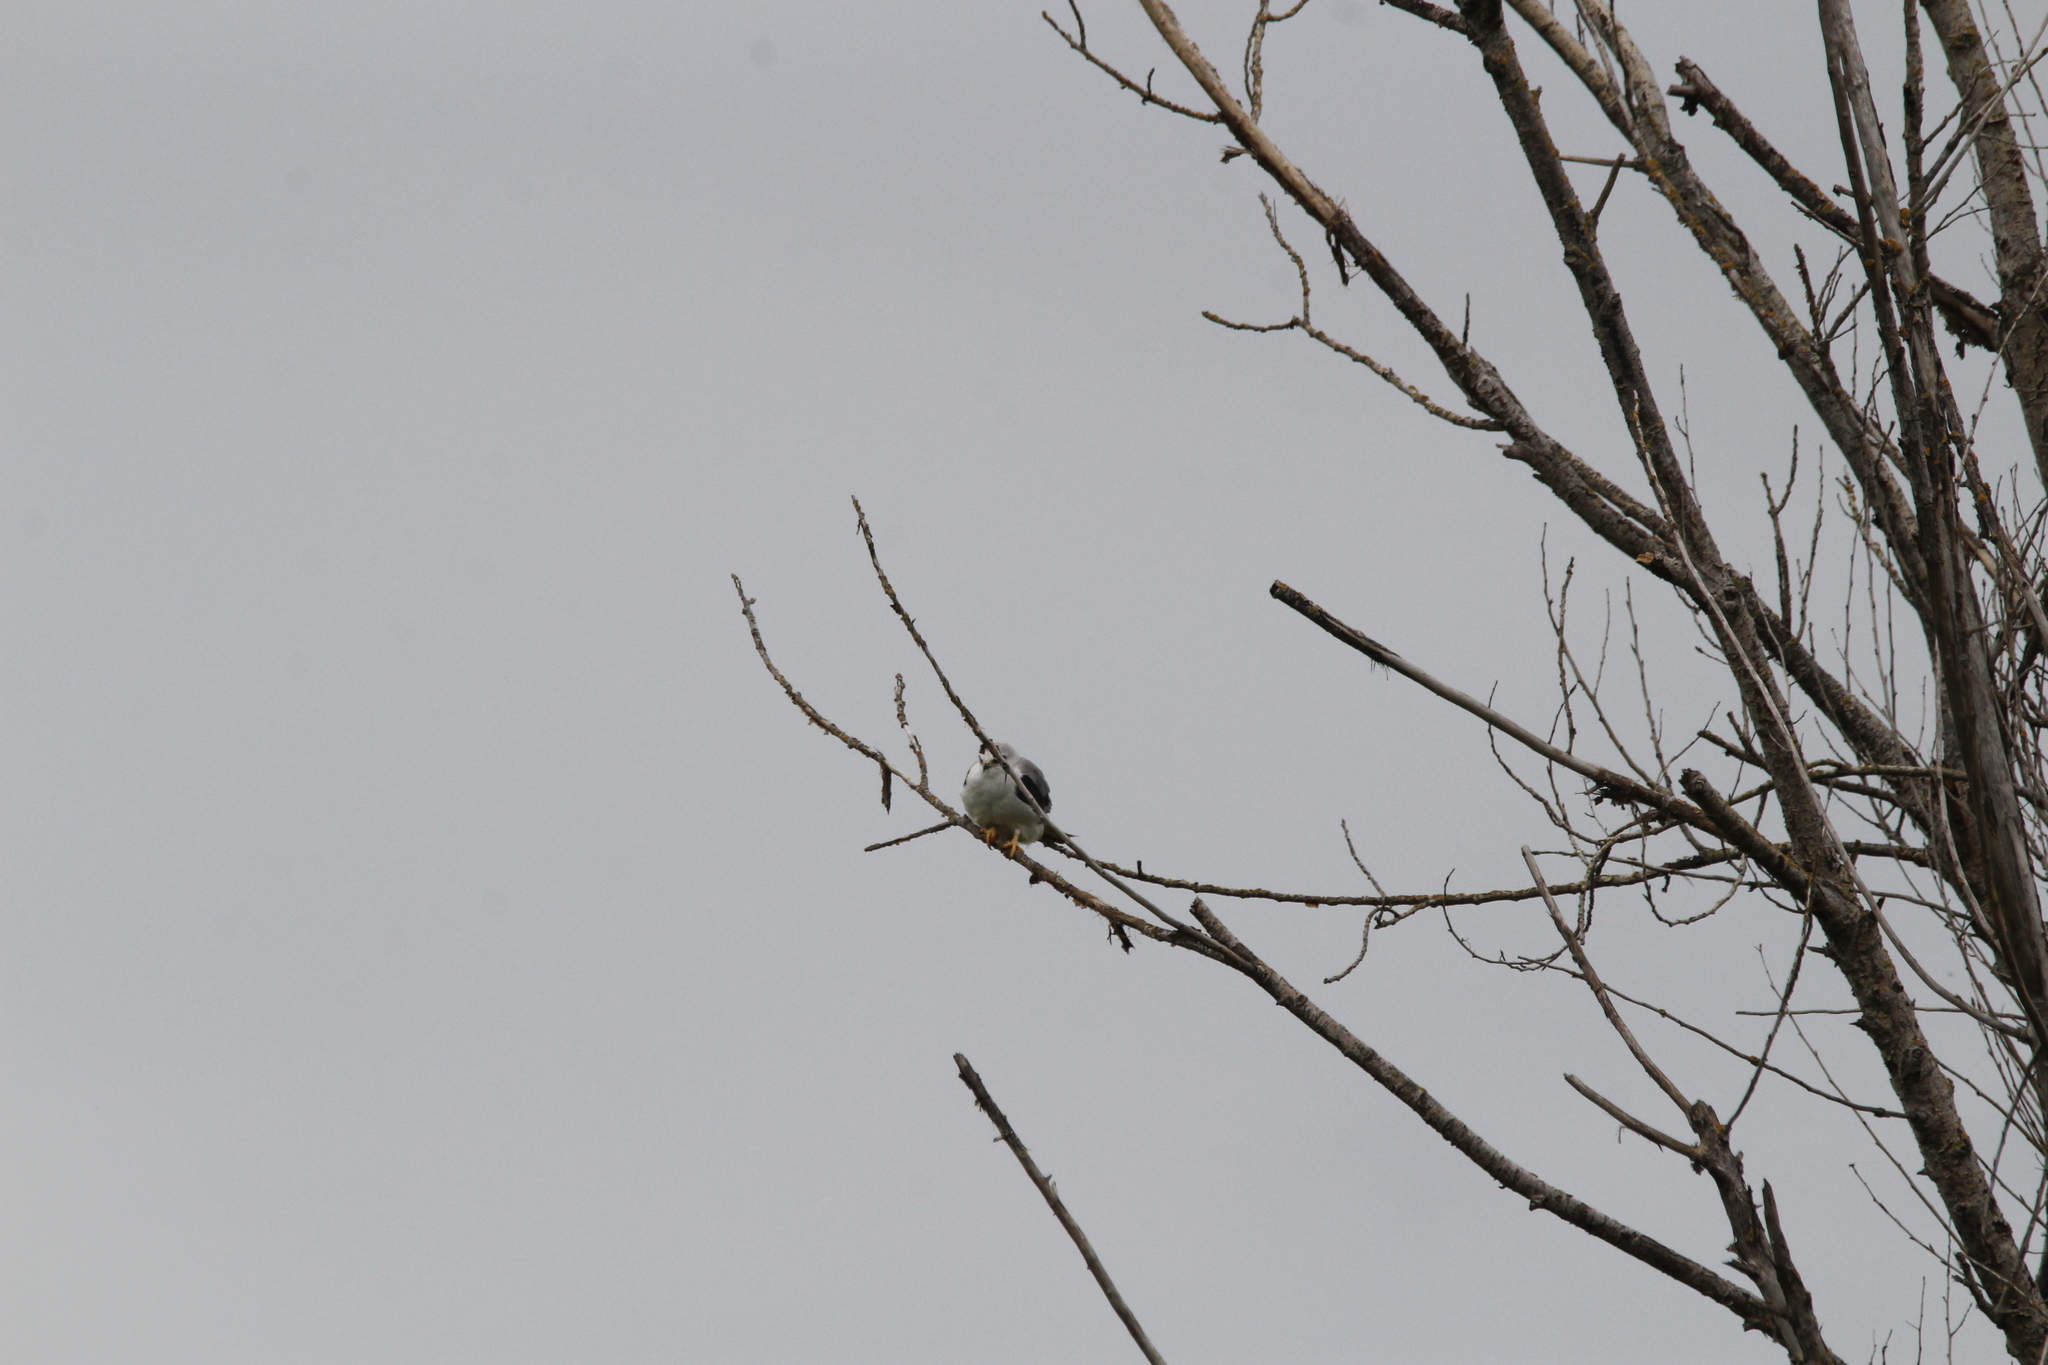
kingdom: Animalia
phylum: Chordata
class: Aves
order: Accipitriformes
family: Accipitridae
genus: Elanus
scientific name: Elanus leucurus
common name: White-tailed kite
